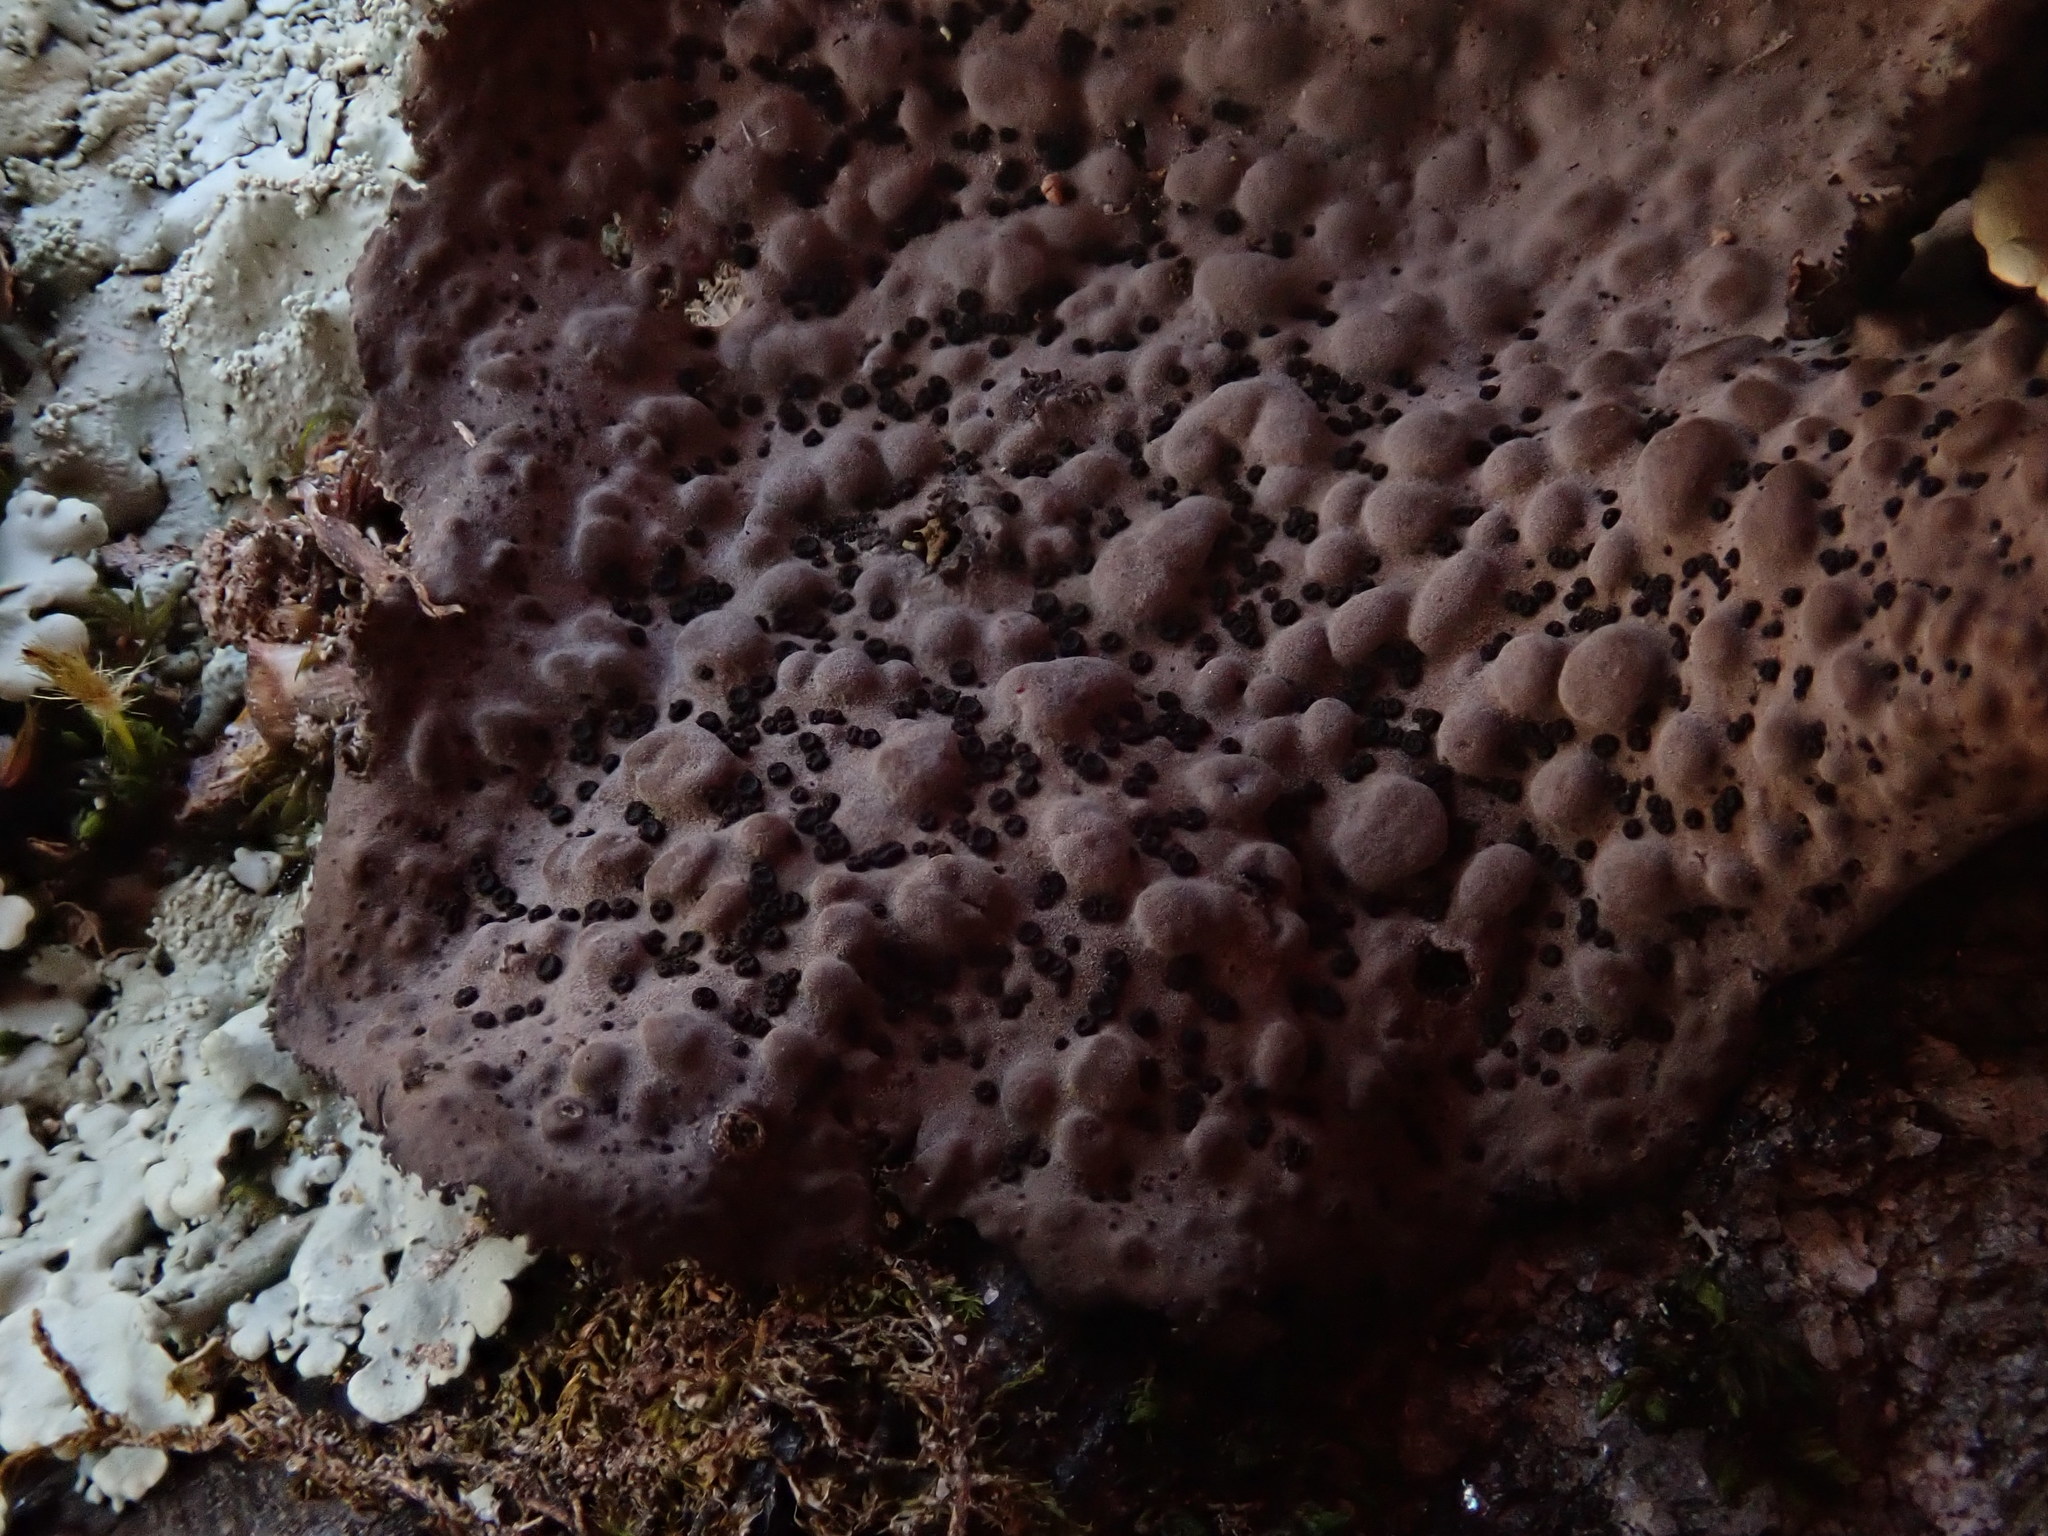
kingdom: Fungi
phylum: Ascomycota
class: Lecanoromycetes
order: Umbilicariales
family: Umbilicariaceae
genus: Lasallia
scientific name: Lasallia papulosa
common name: Common toadskin lichen
